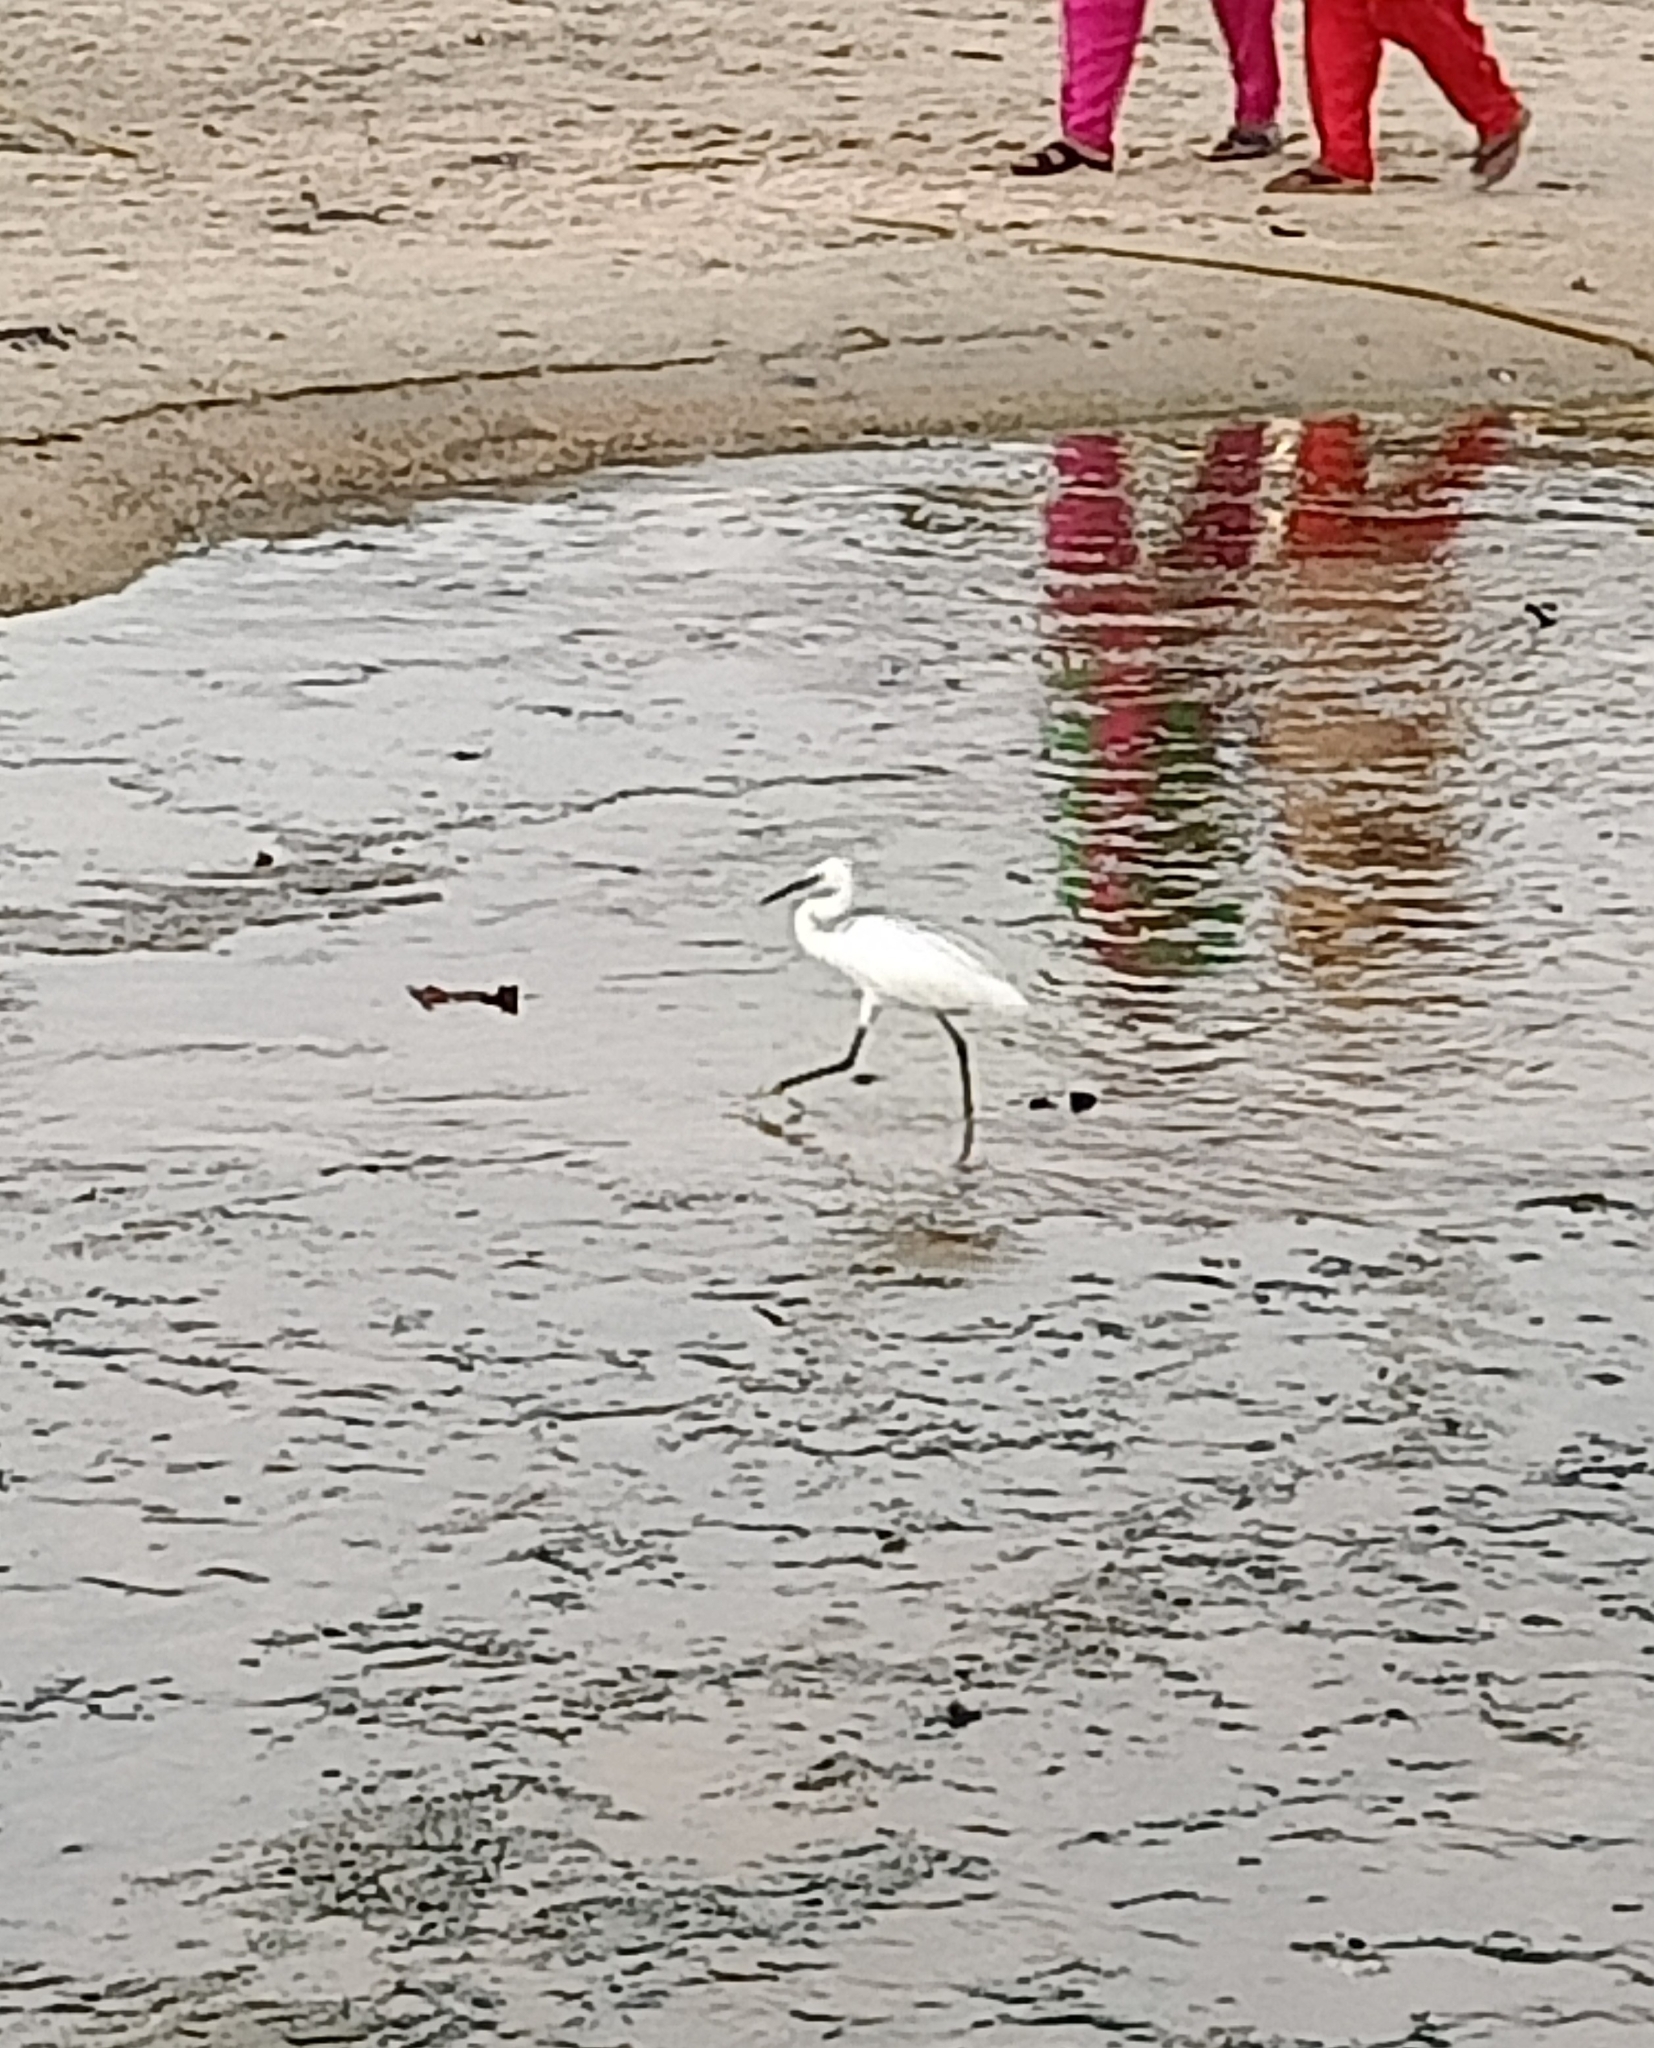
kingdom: Animalia
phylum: Chordata
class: Aves
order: Pelecaniformes
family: Ardeidae
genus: Egretta
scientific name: Egretta garzetta
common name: Little egret
